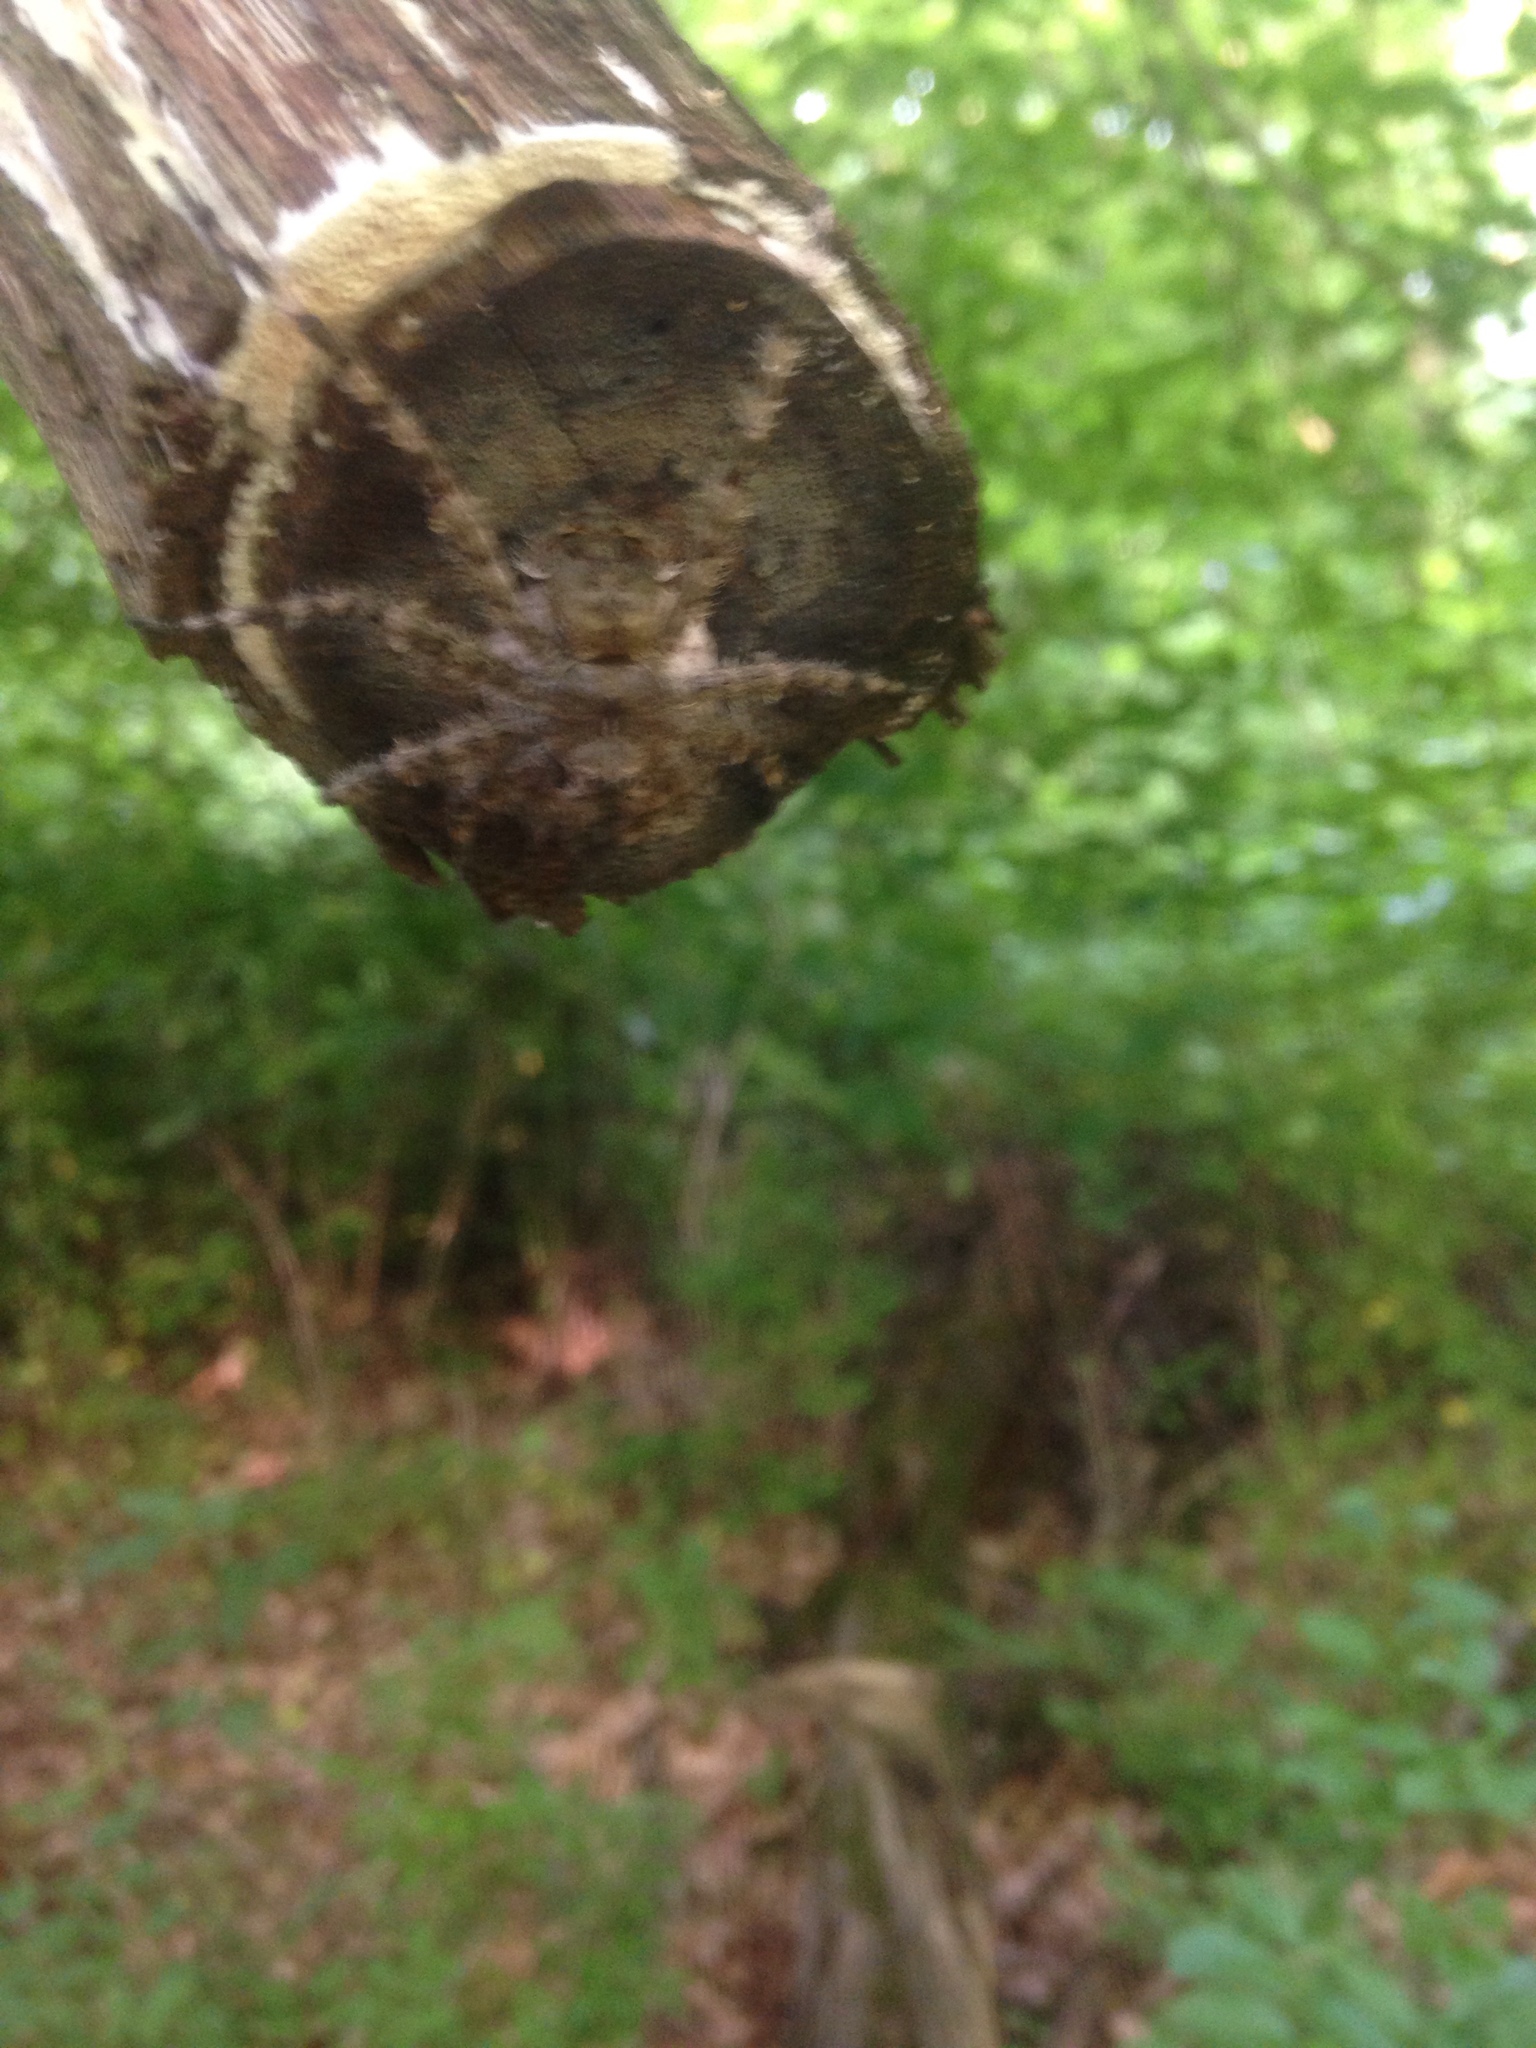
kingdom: Animalia
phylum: Arthropoda
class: Arachnida
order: Araneae
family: Pisauridae
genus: Dolomedes
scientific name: Dolomedes albineus
